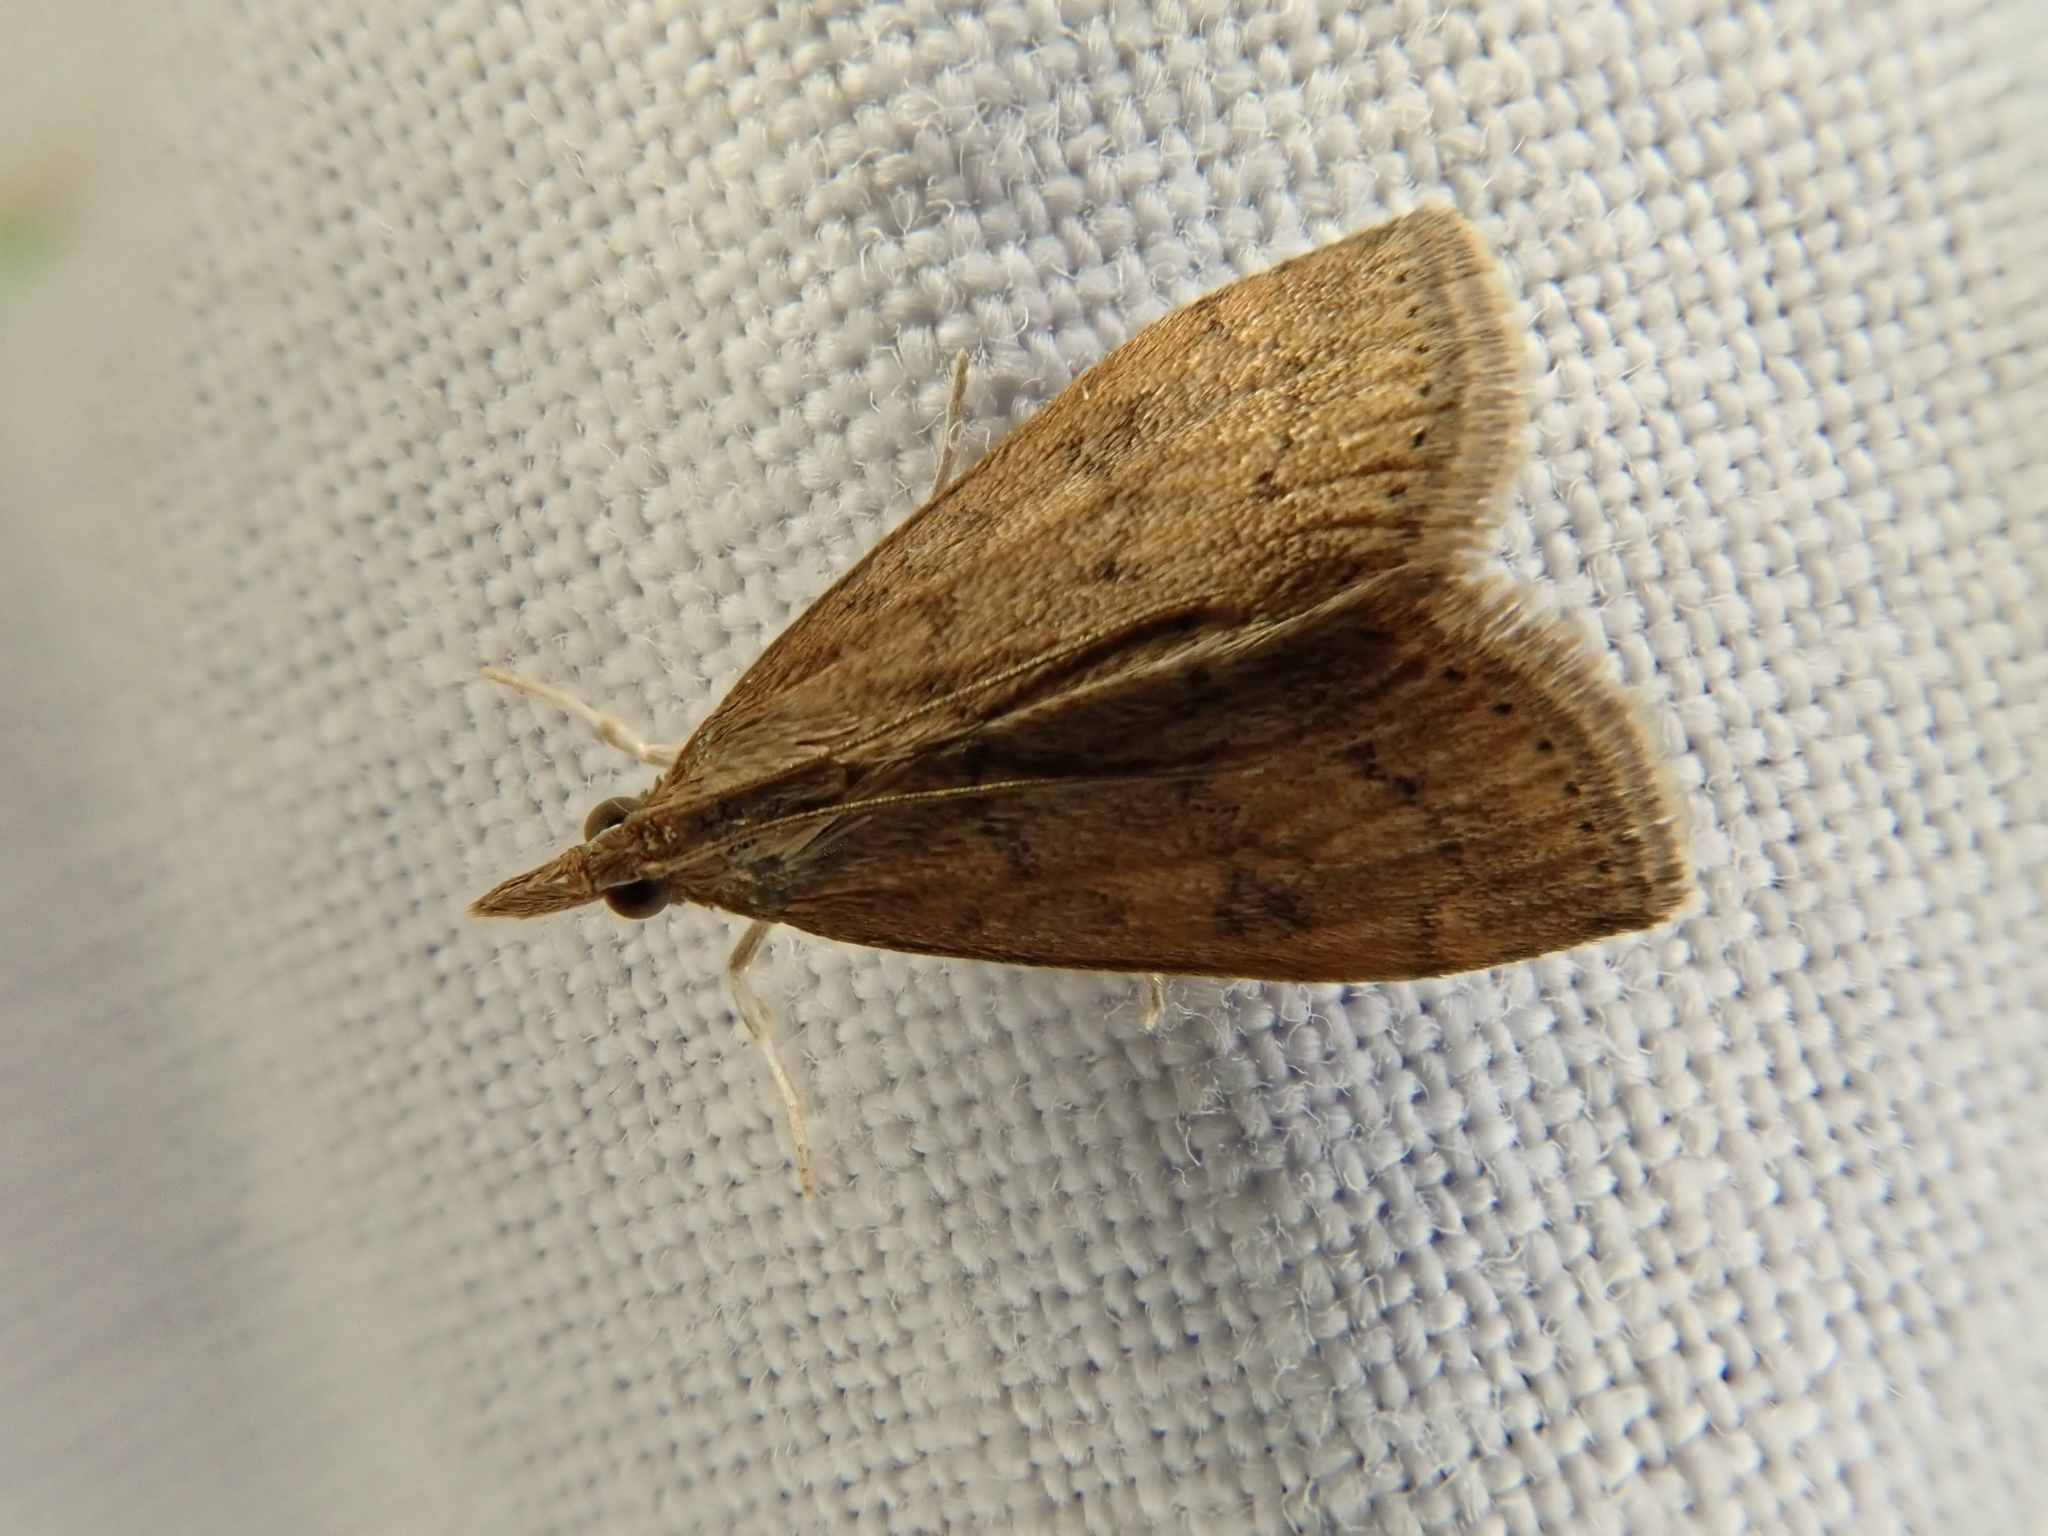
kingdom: Animalia
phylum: Arthropoda
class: Insecta
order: Lepidoptera
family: Crambidae
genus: Udea
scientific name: Udea rubigalis
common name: Celery leaftier moth
